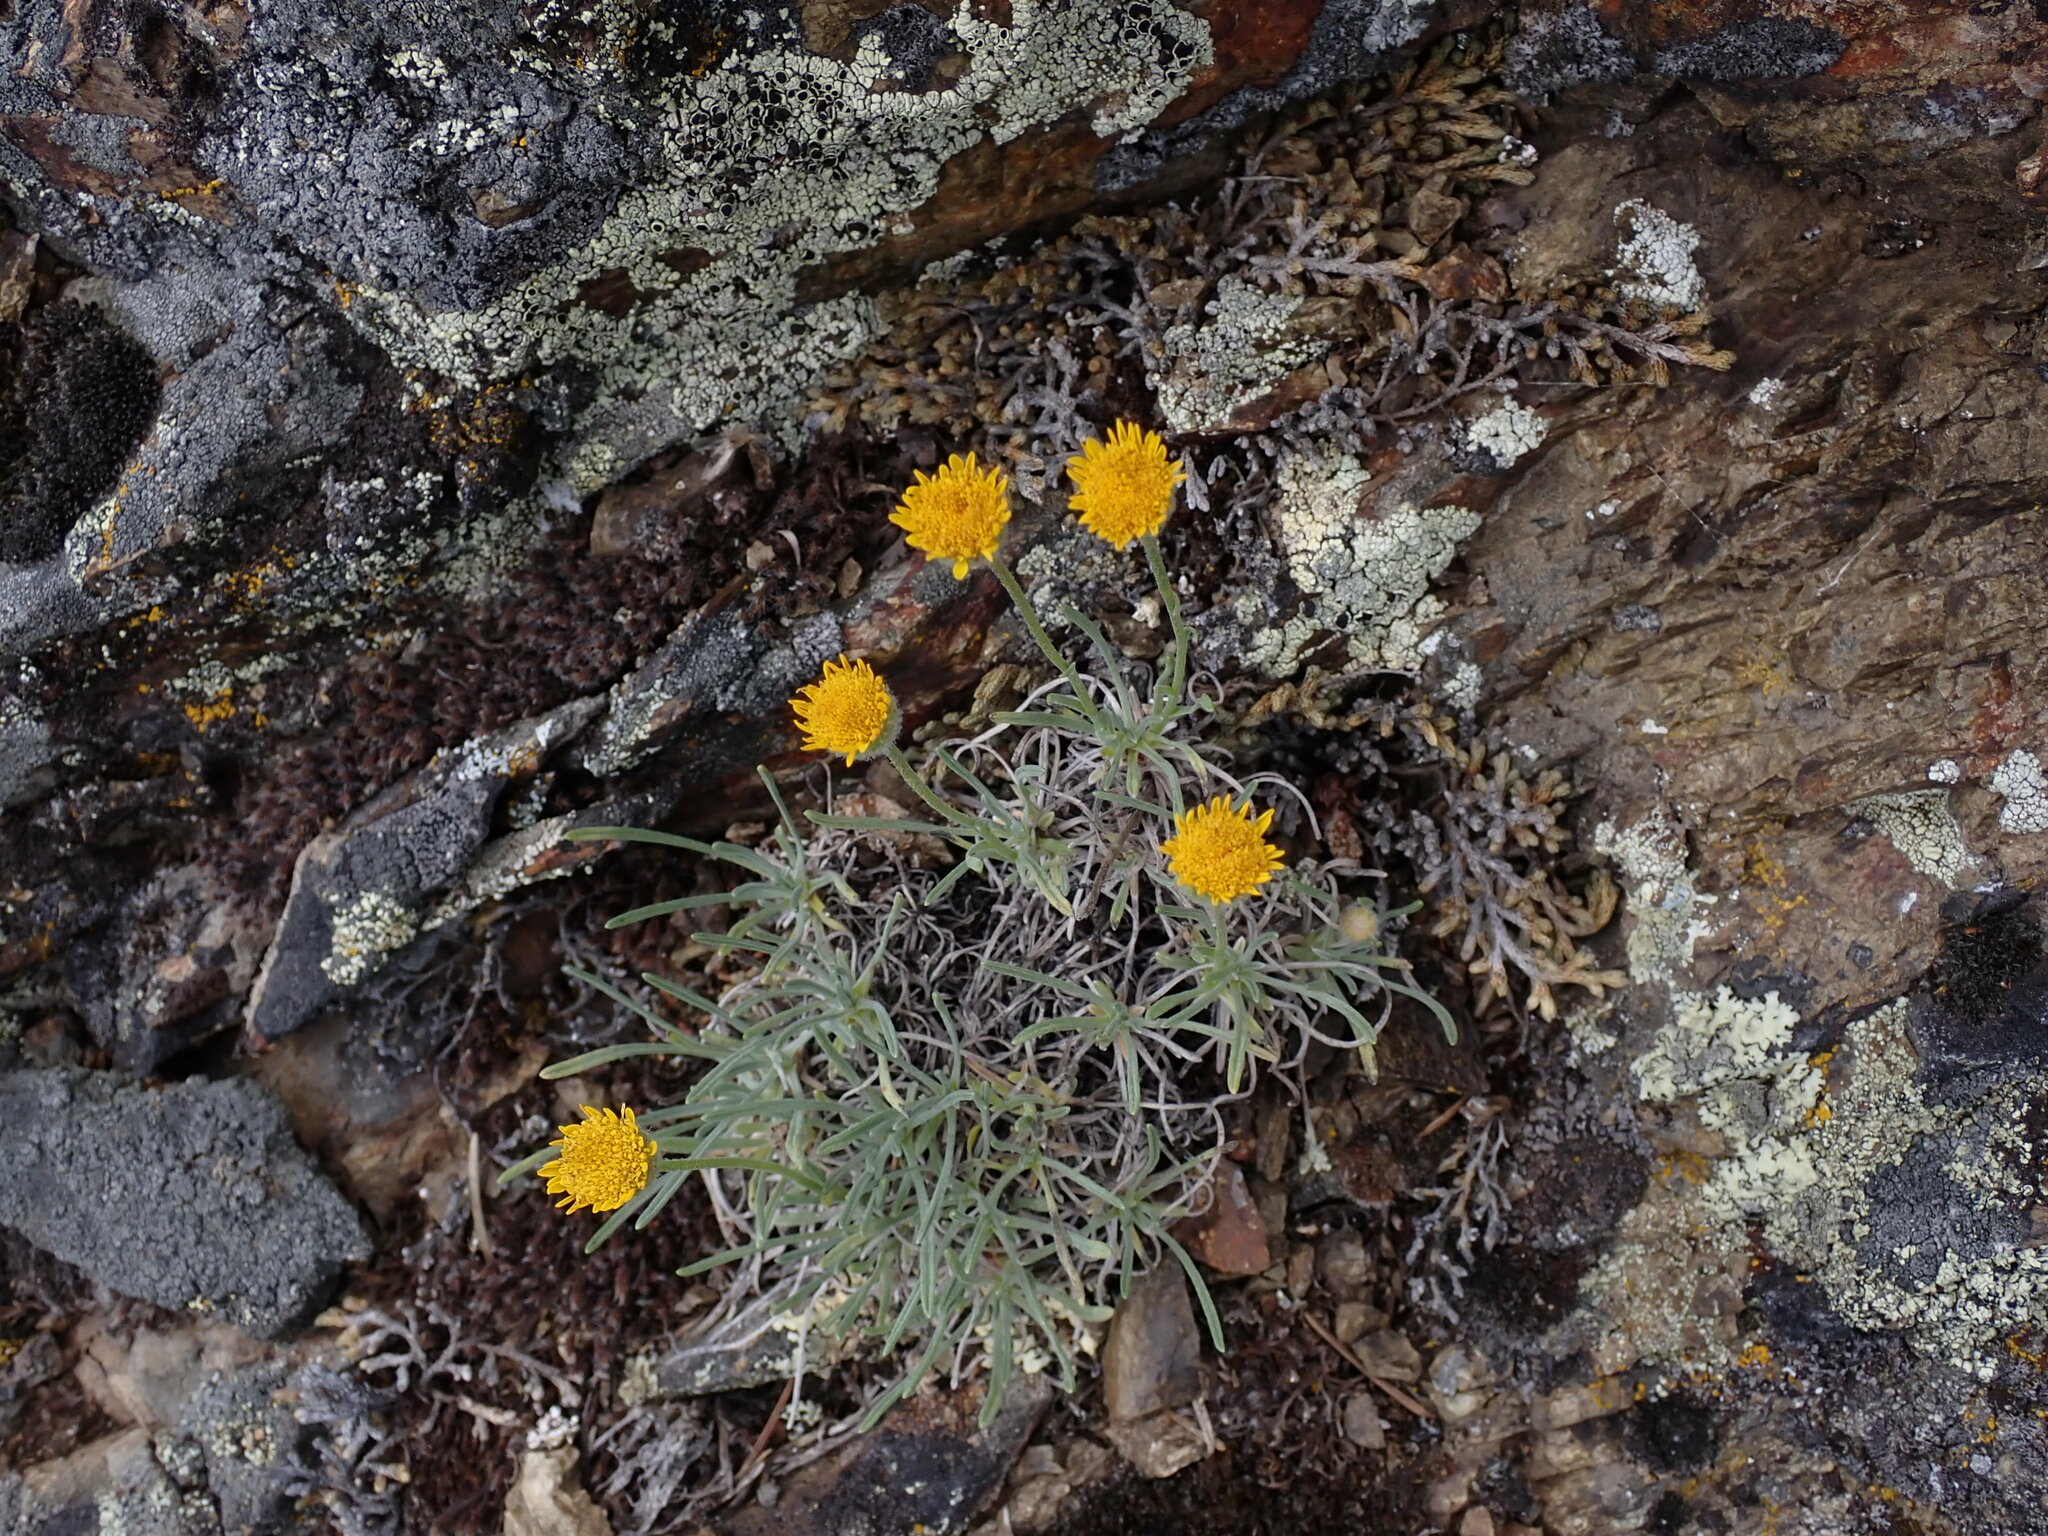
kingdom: Plantae
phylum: Tracheophyta
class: Magnoliopsida
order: Asterales
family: Asteraceae
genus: Erigeron
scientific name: Erigeron linearis
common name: Desert yellow fleabane
